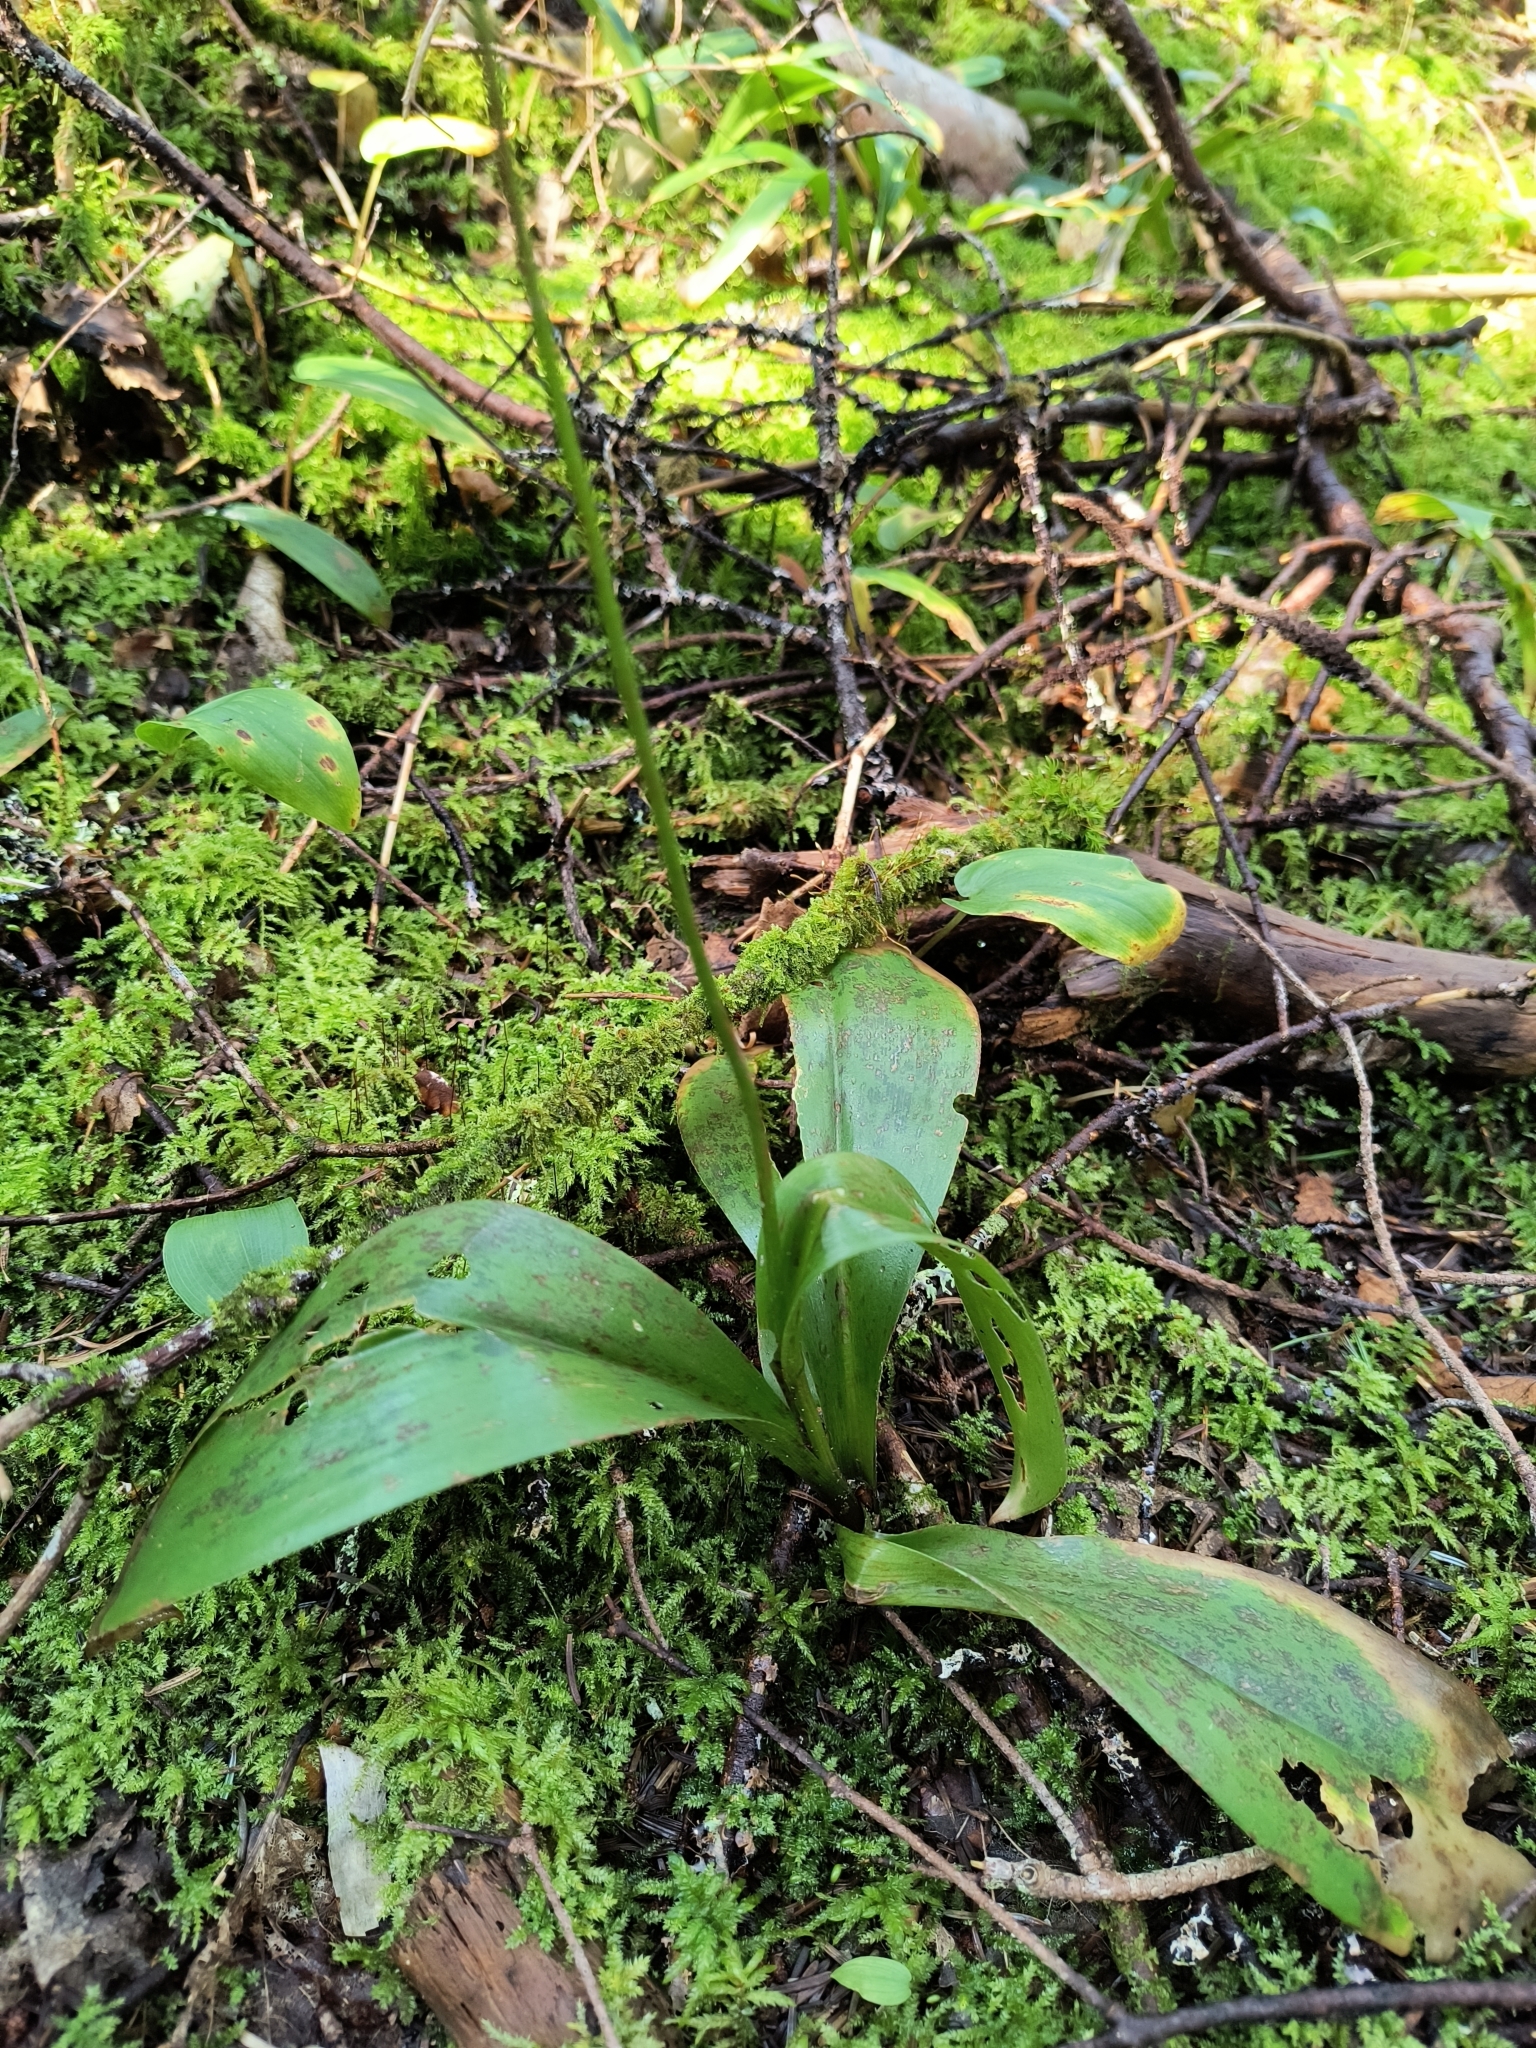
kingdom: Plantae
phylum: Tracheophyta
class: Liliopsida
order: Liliales
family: Liliaceae
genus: Clintonia
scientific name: Clintonia borealis
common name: Yellow clintonia
